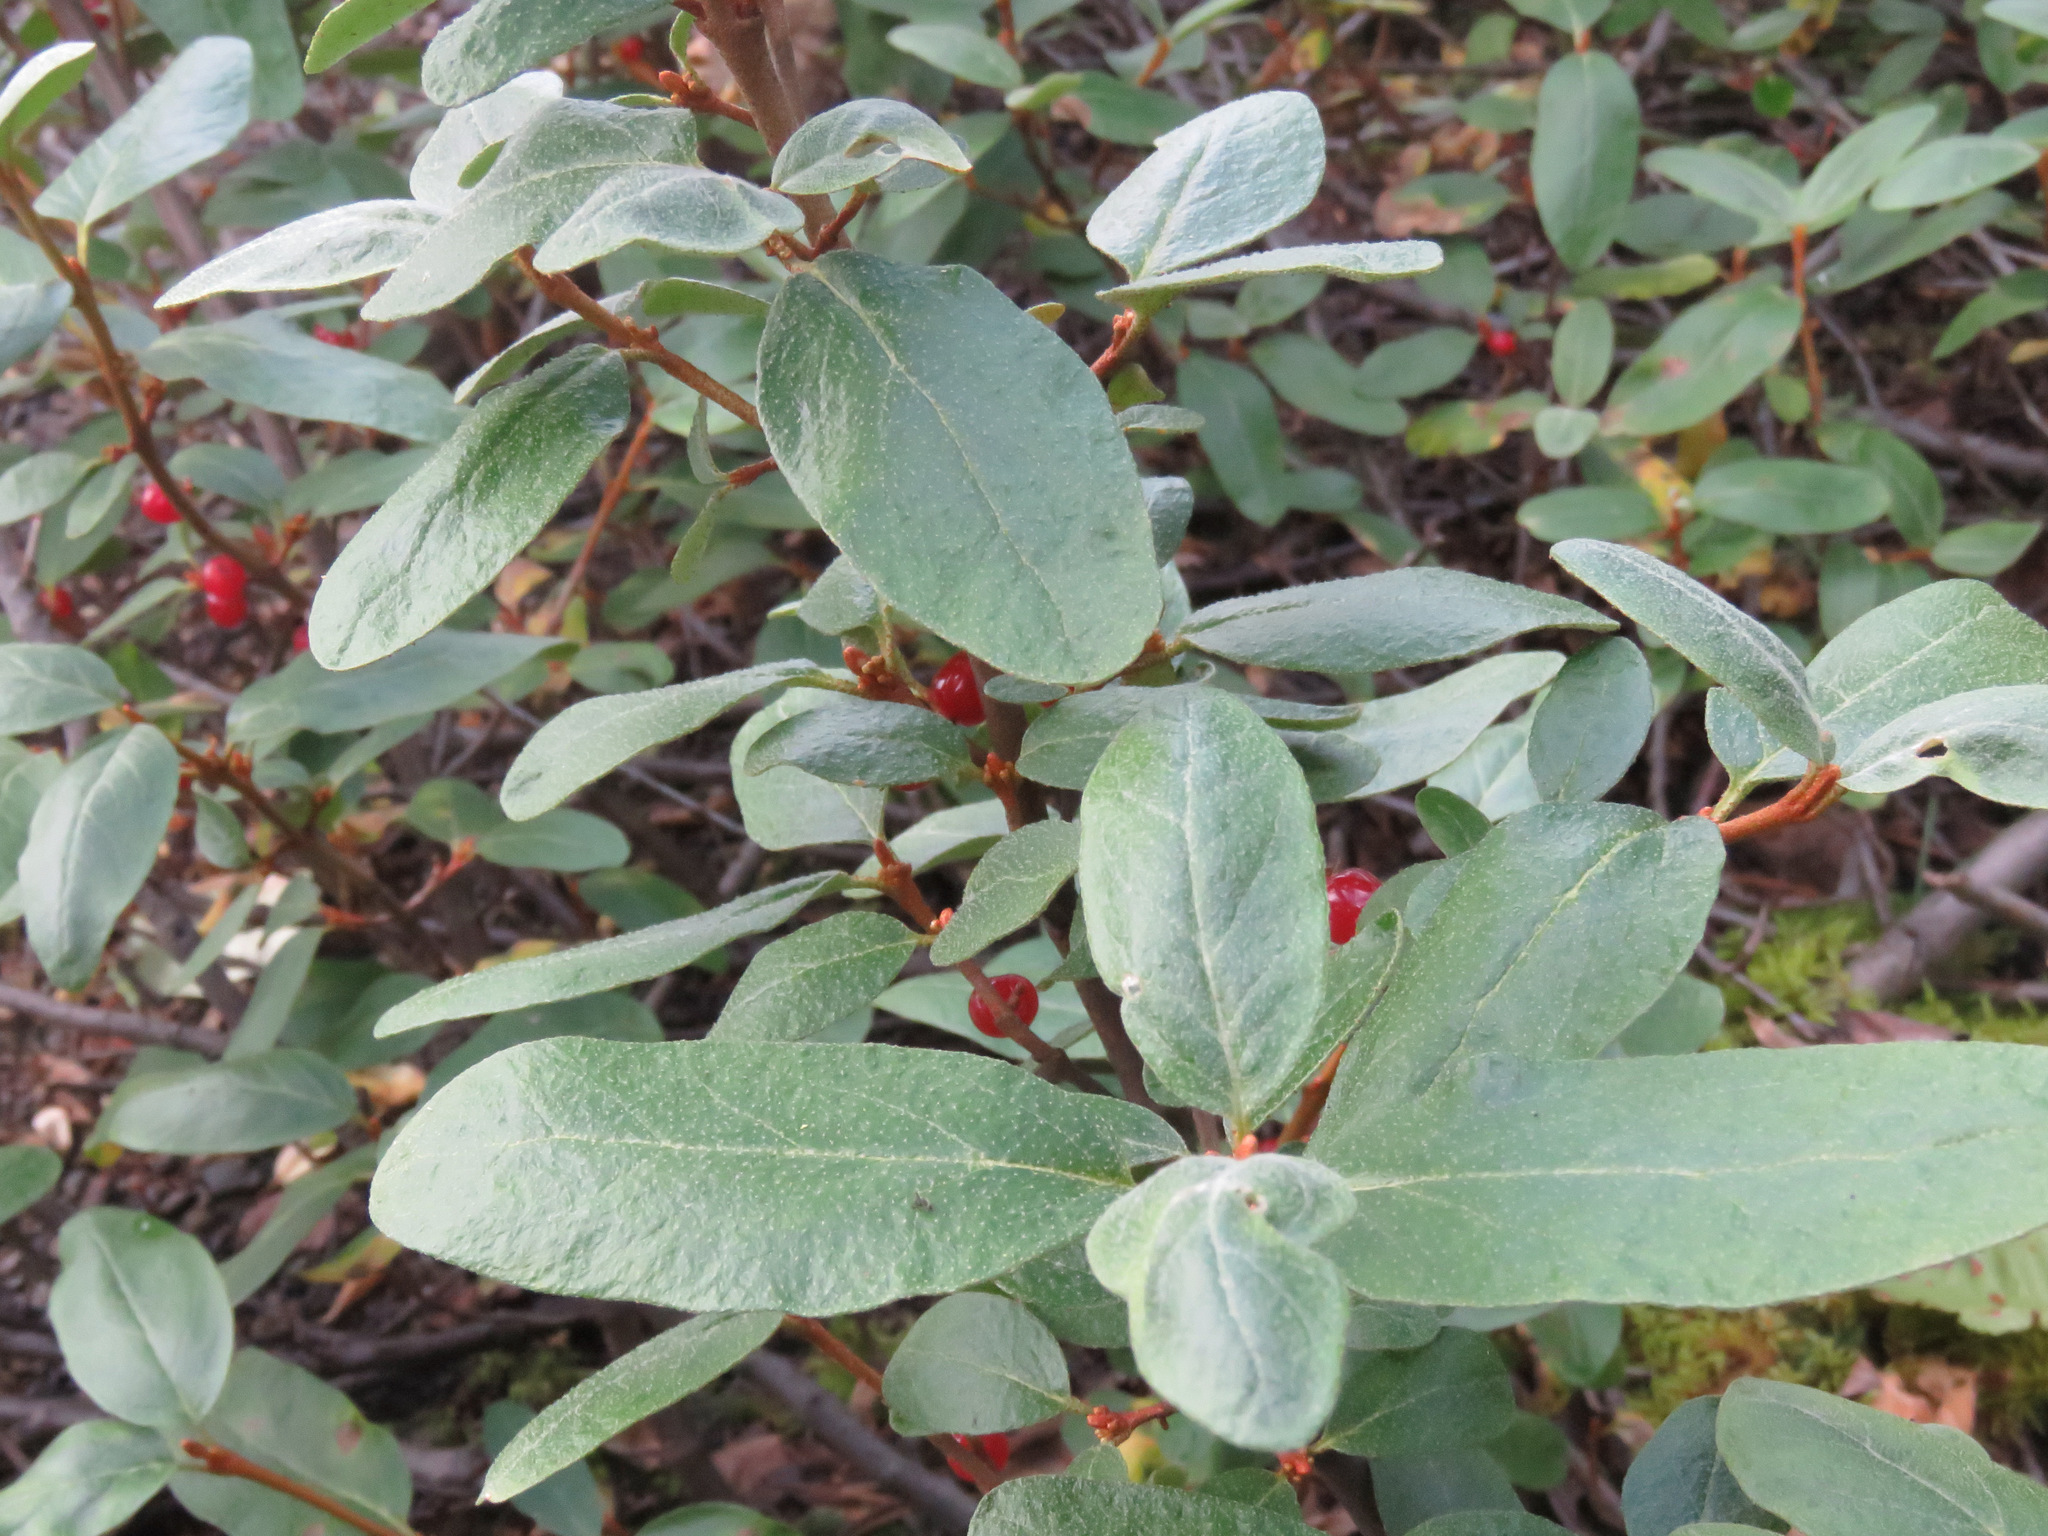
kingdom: Plantae
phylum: Tracheophyta
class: Magnoliopsida
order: Rosales
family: Elaeagnaceae
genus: Shepherdia
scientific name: Shepherdia canadensis
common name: Soapberry
